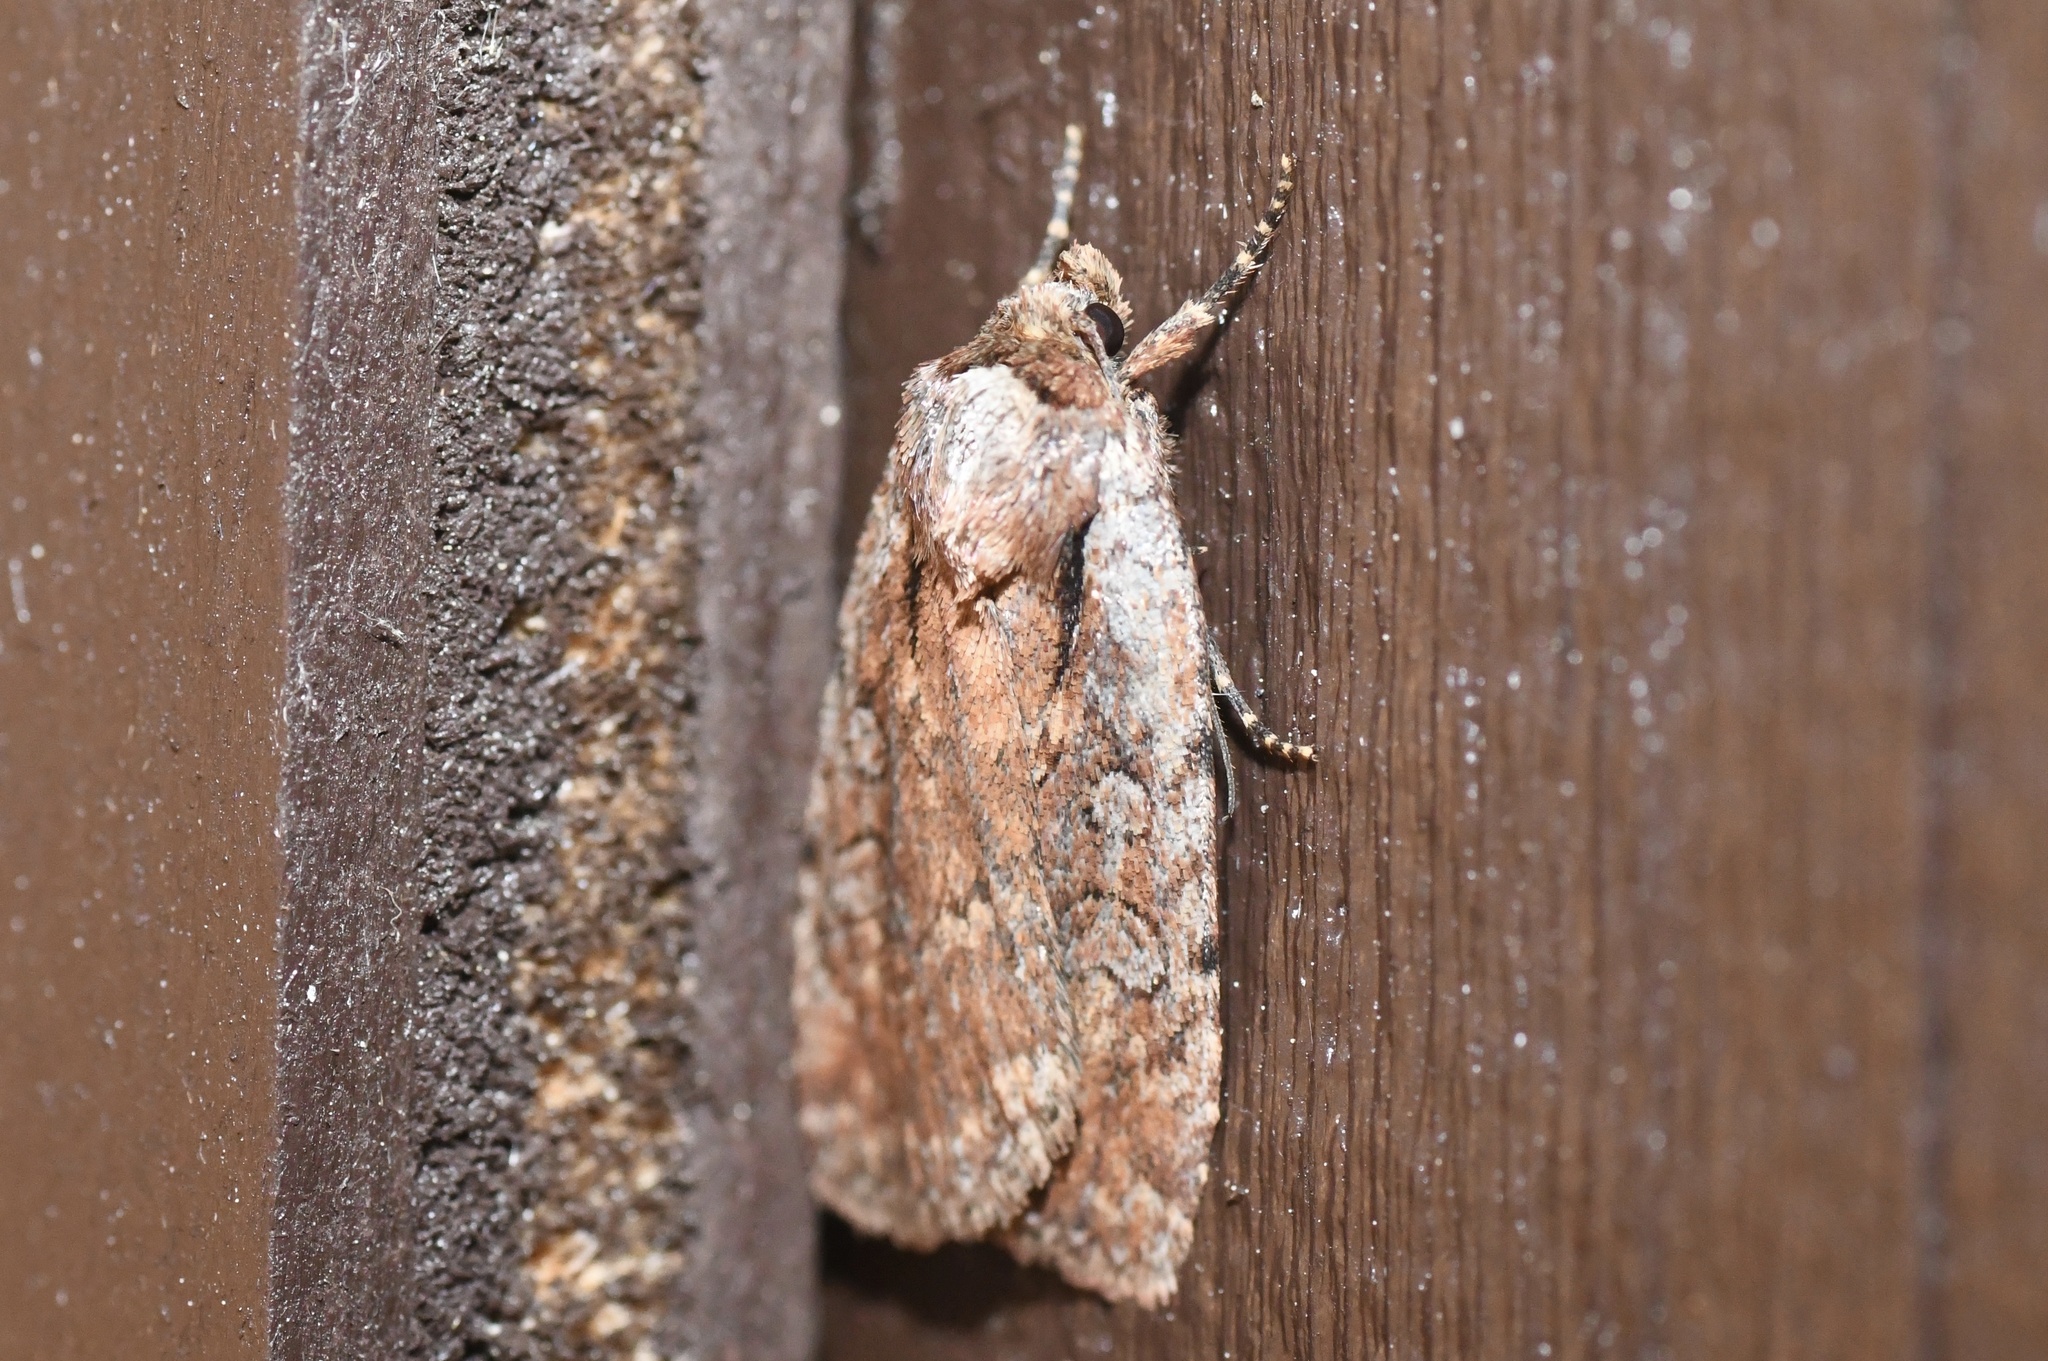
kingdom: Animalia
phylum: Arthropoda
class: Insecta
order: Lepidoptera
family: Noctuidae
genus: Eueretagrotis
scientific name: Eueretagrotis attentus
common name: Attentive dart
